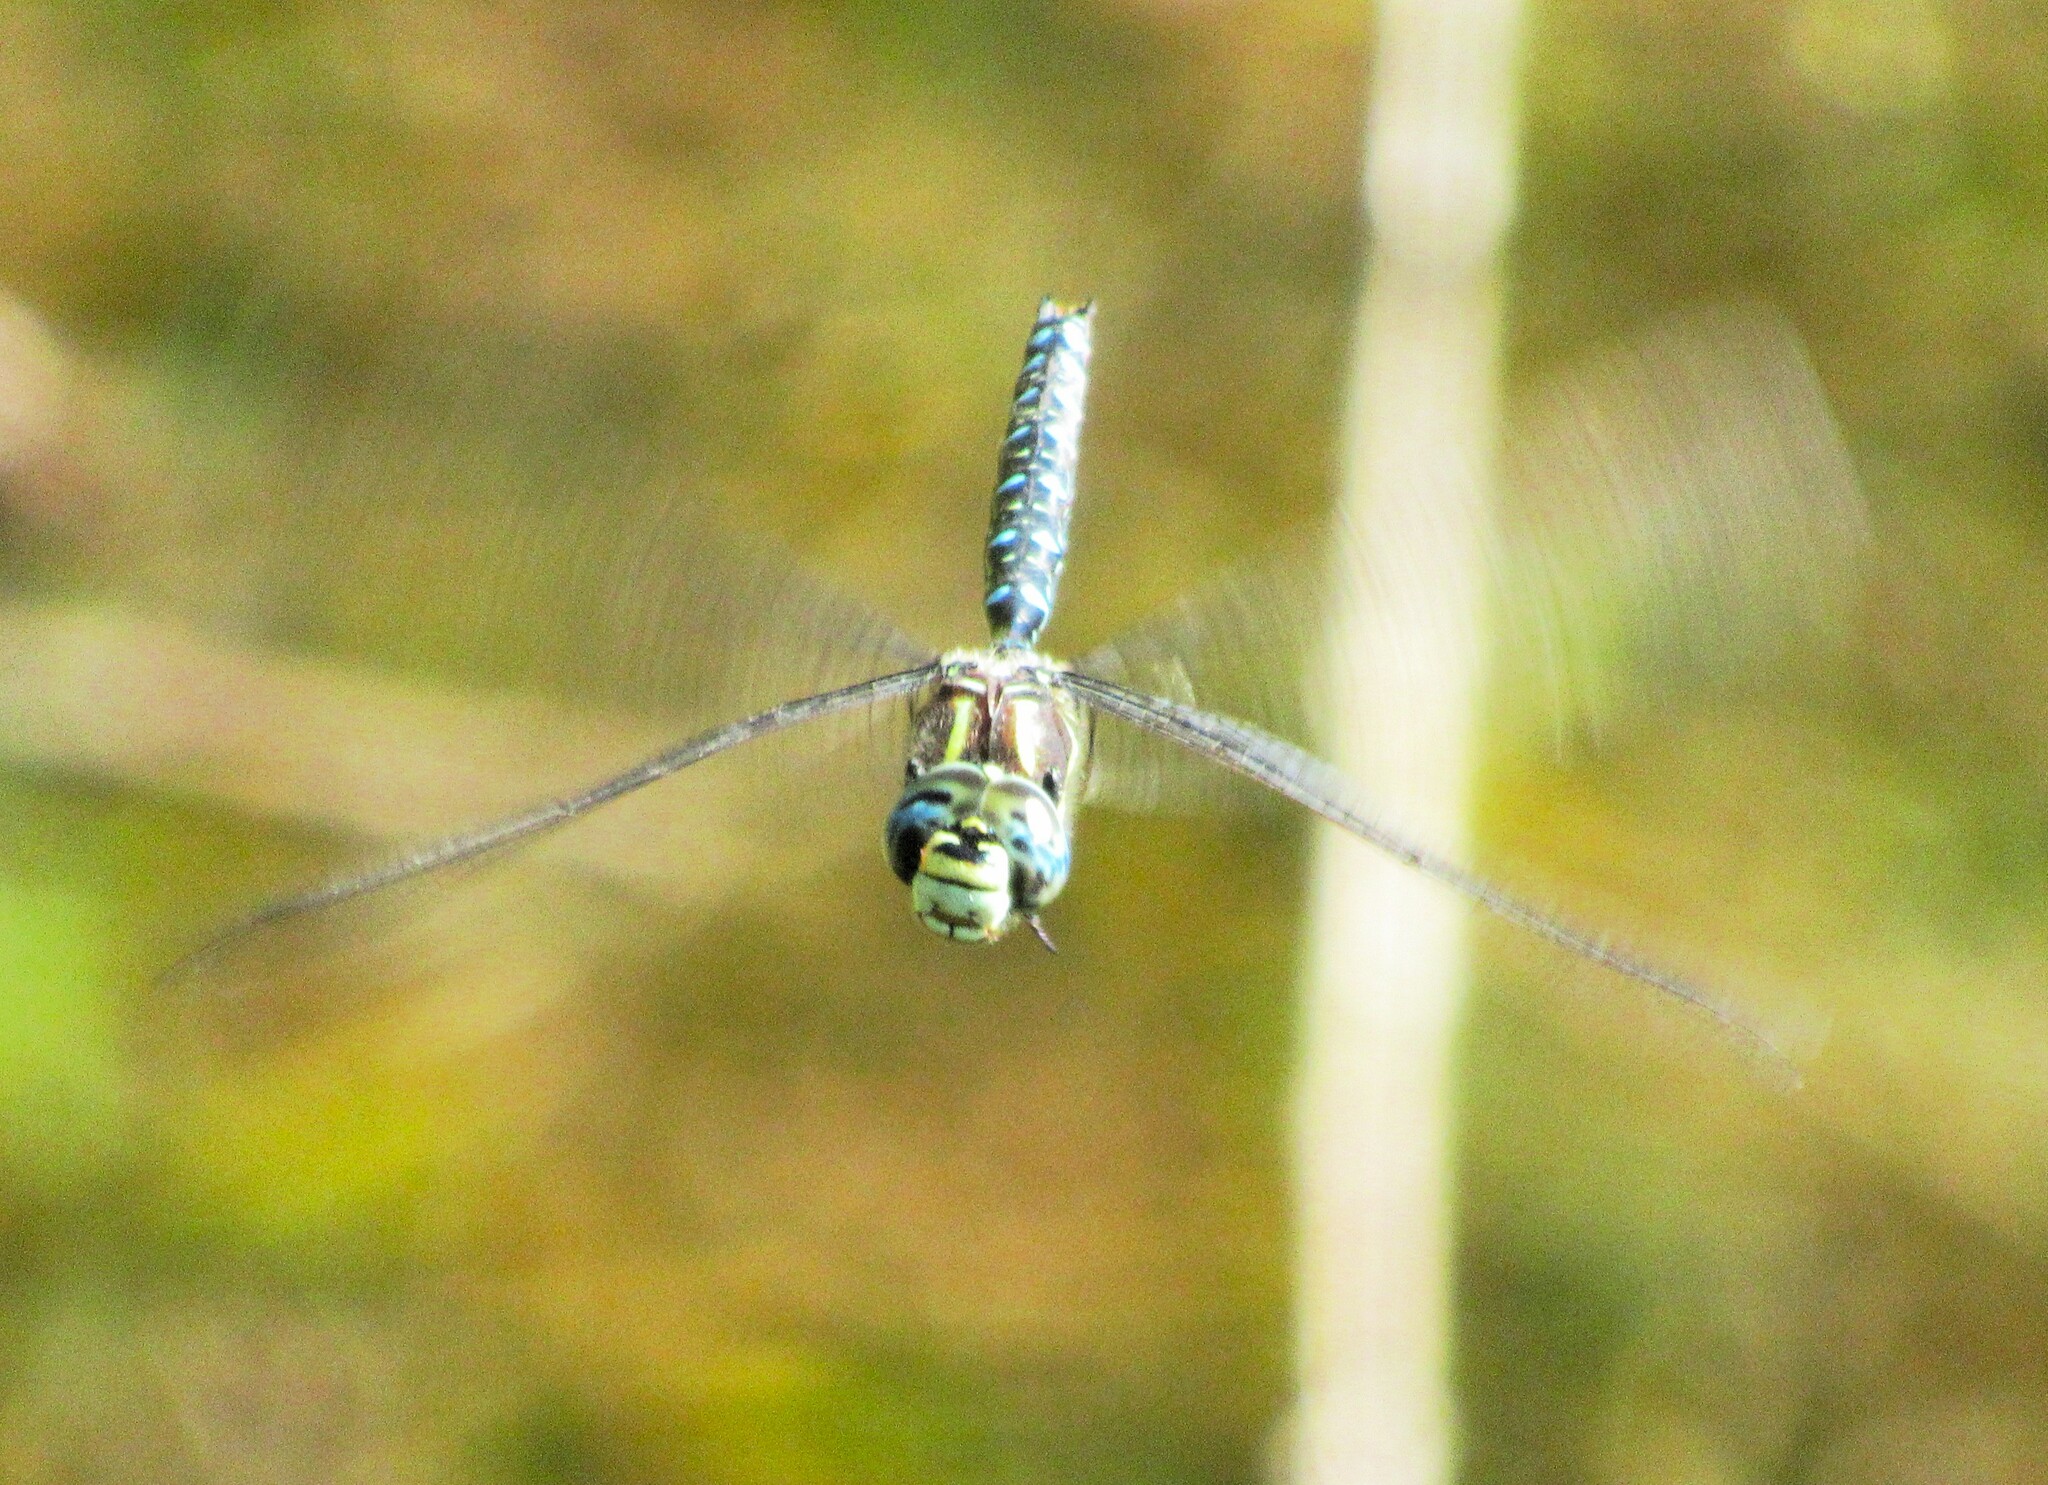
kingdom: Animalia
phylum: Arthropoda
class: Insecta
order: Odonata
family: Aeshnidae
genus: Aeshna
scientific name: Aeshna palmata
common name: Paddle-tailed darner
